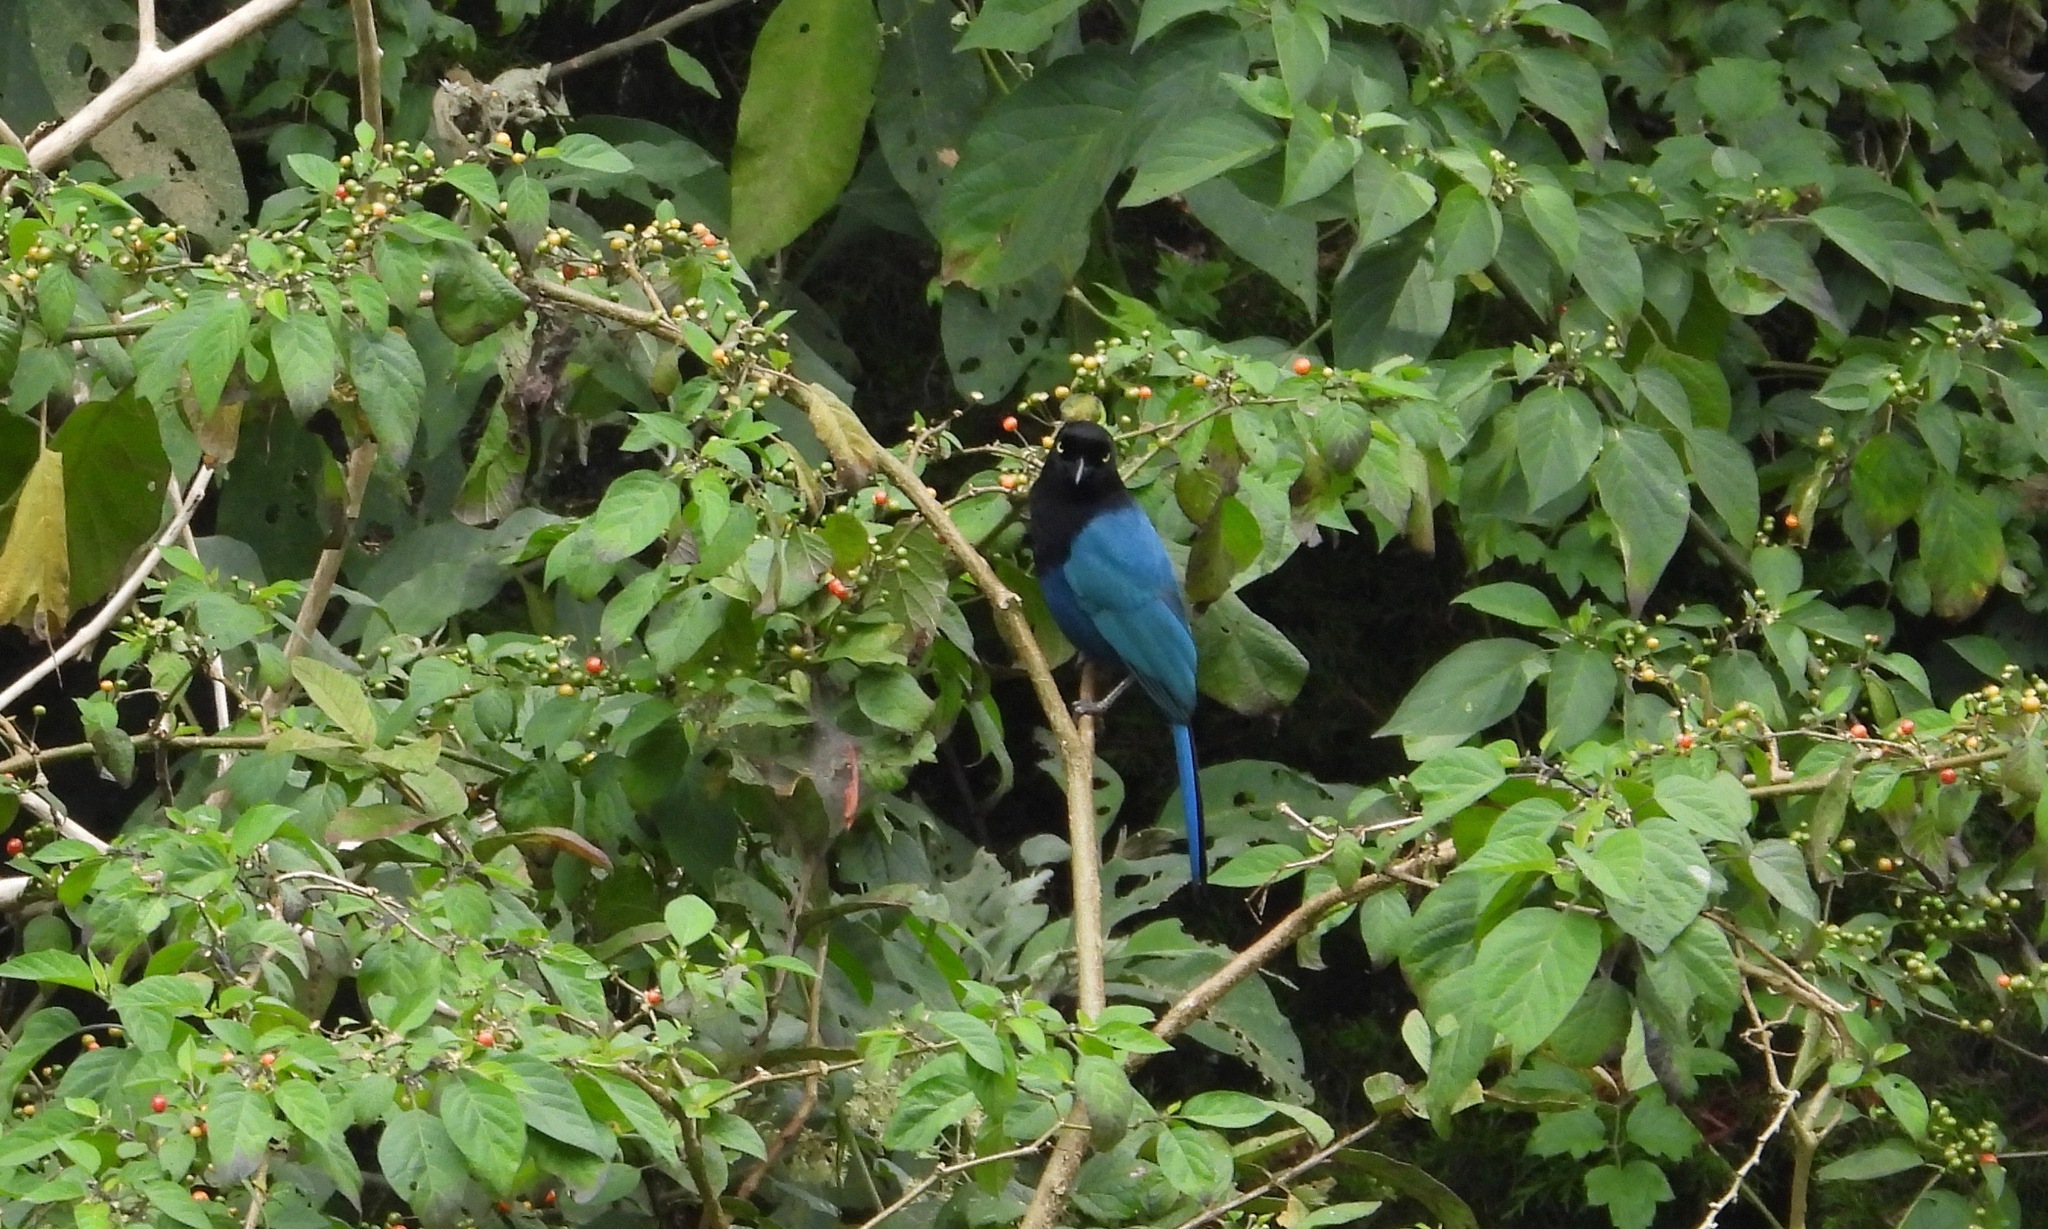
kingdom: Animalia
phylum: Chordata
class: Aves
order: Passeriformes
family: Corvidae
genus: Cyanocorax
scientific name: Cyanocorax melanocyaneus
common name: Bushy-crested jay
